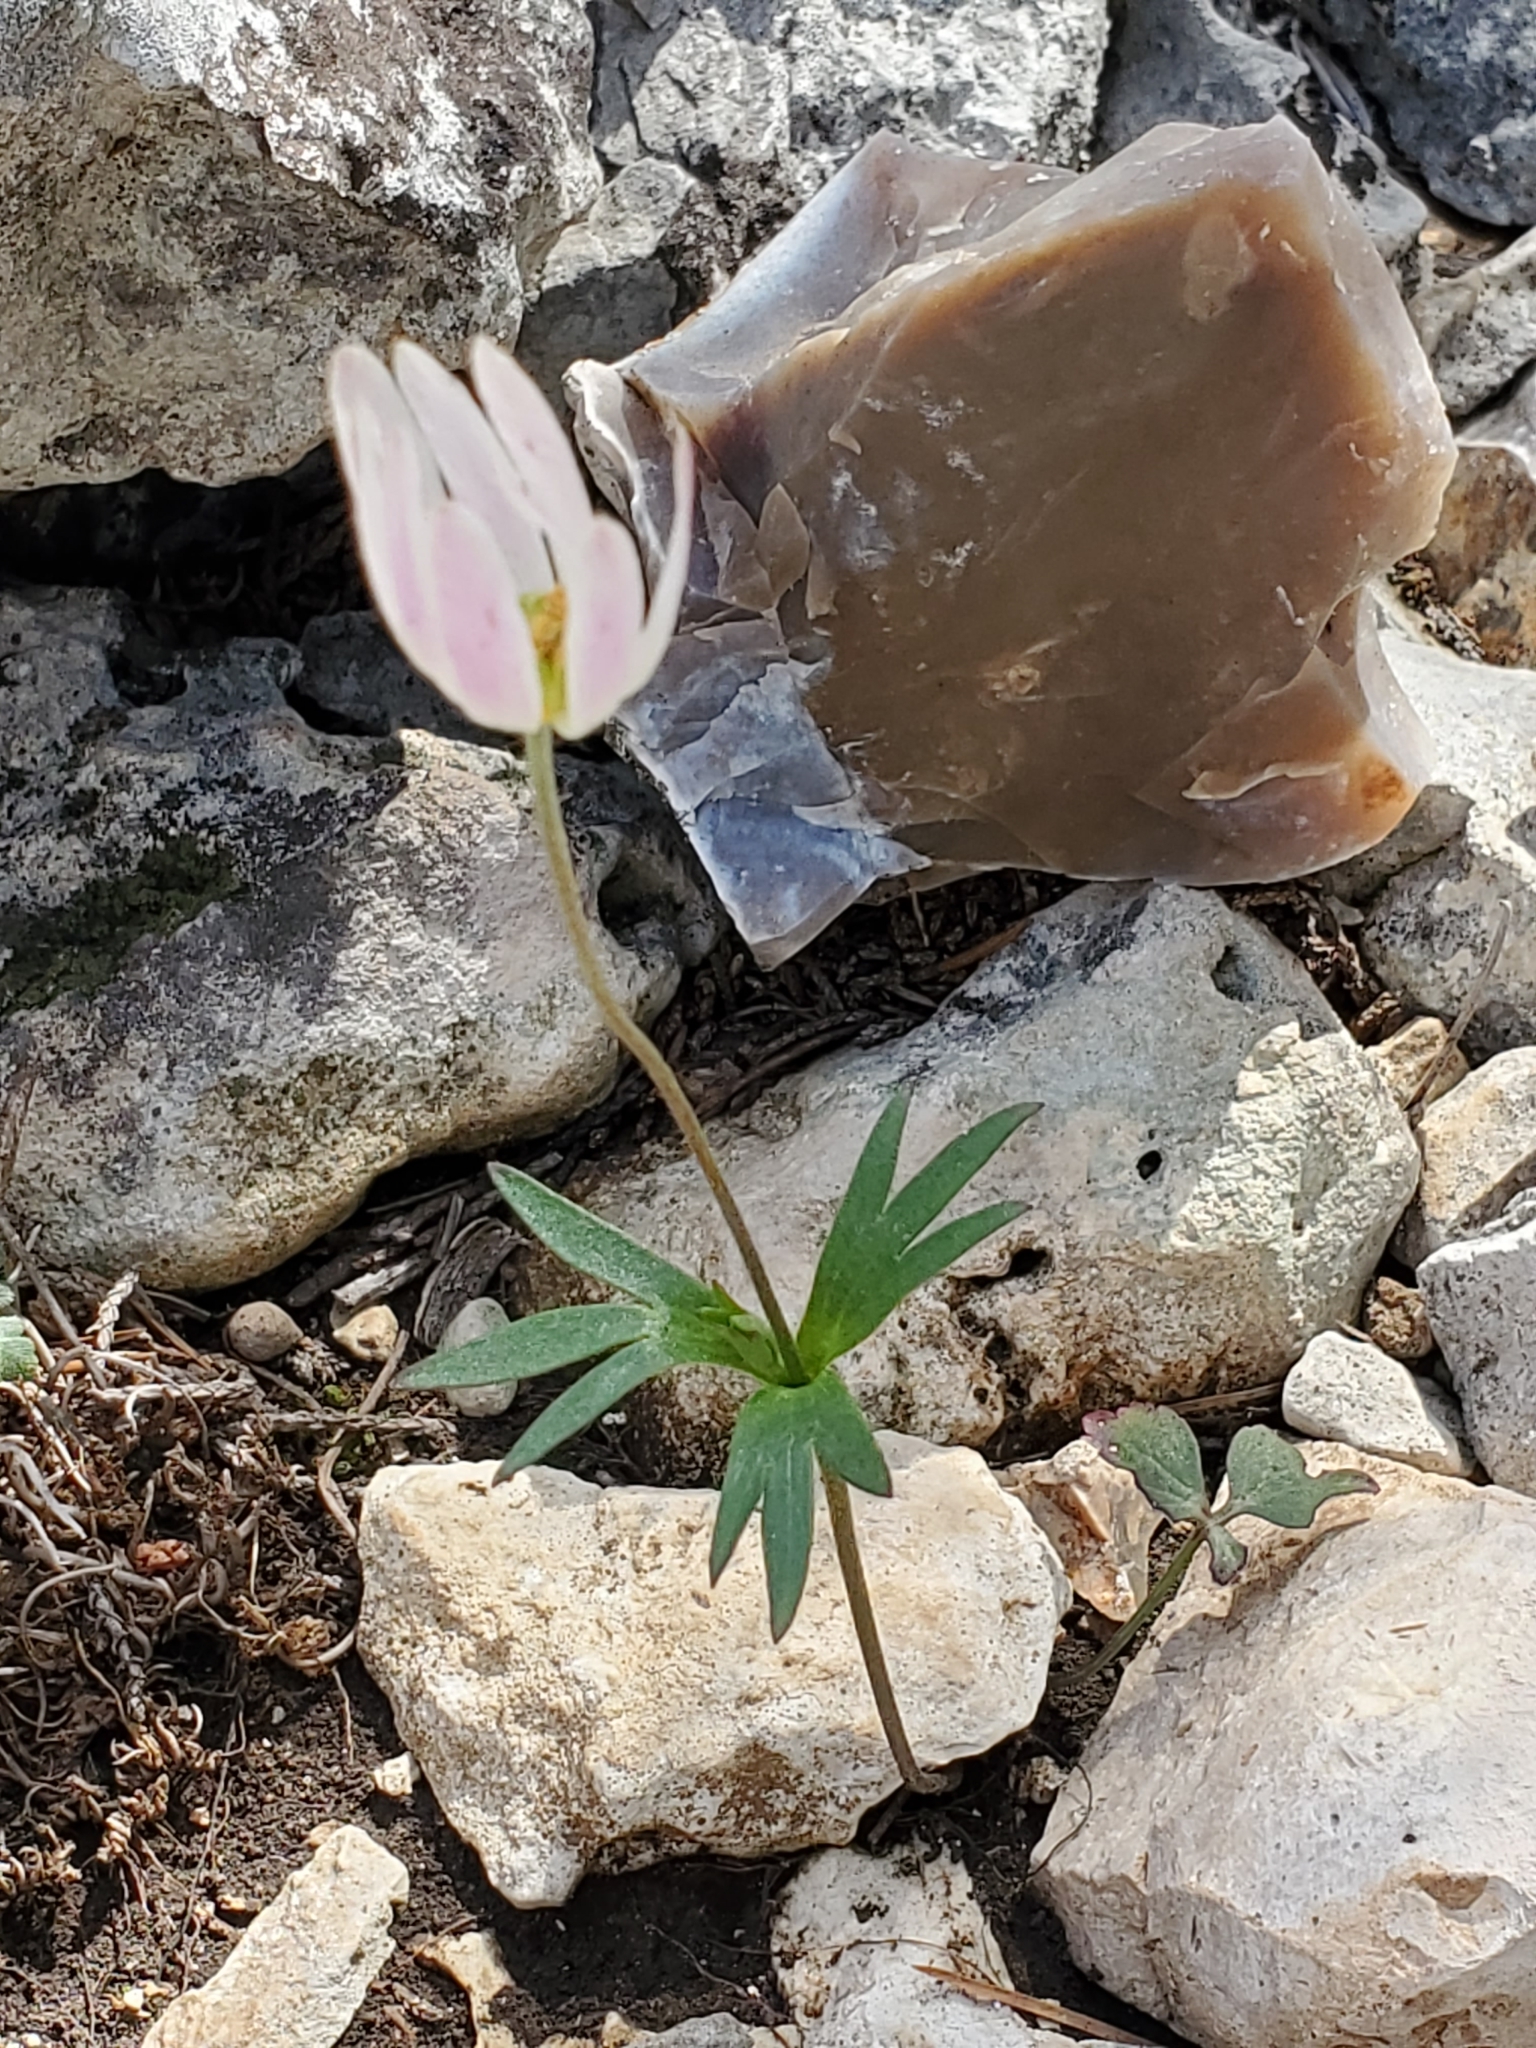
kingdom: Plantae
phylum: Tracheophyta
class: Magnoliopsida
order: Ranunculales
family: Ranunculaceae
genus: Anemone
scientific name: Anemone edwardsiana
